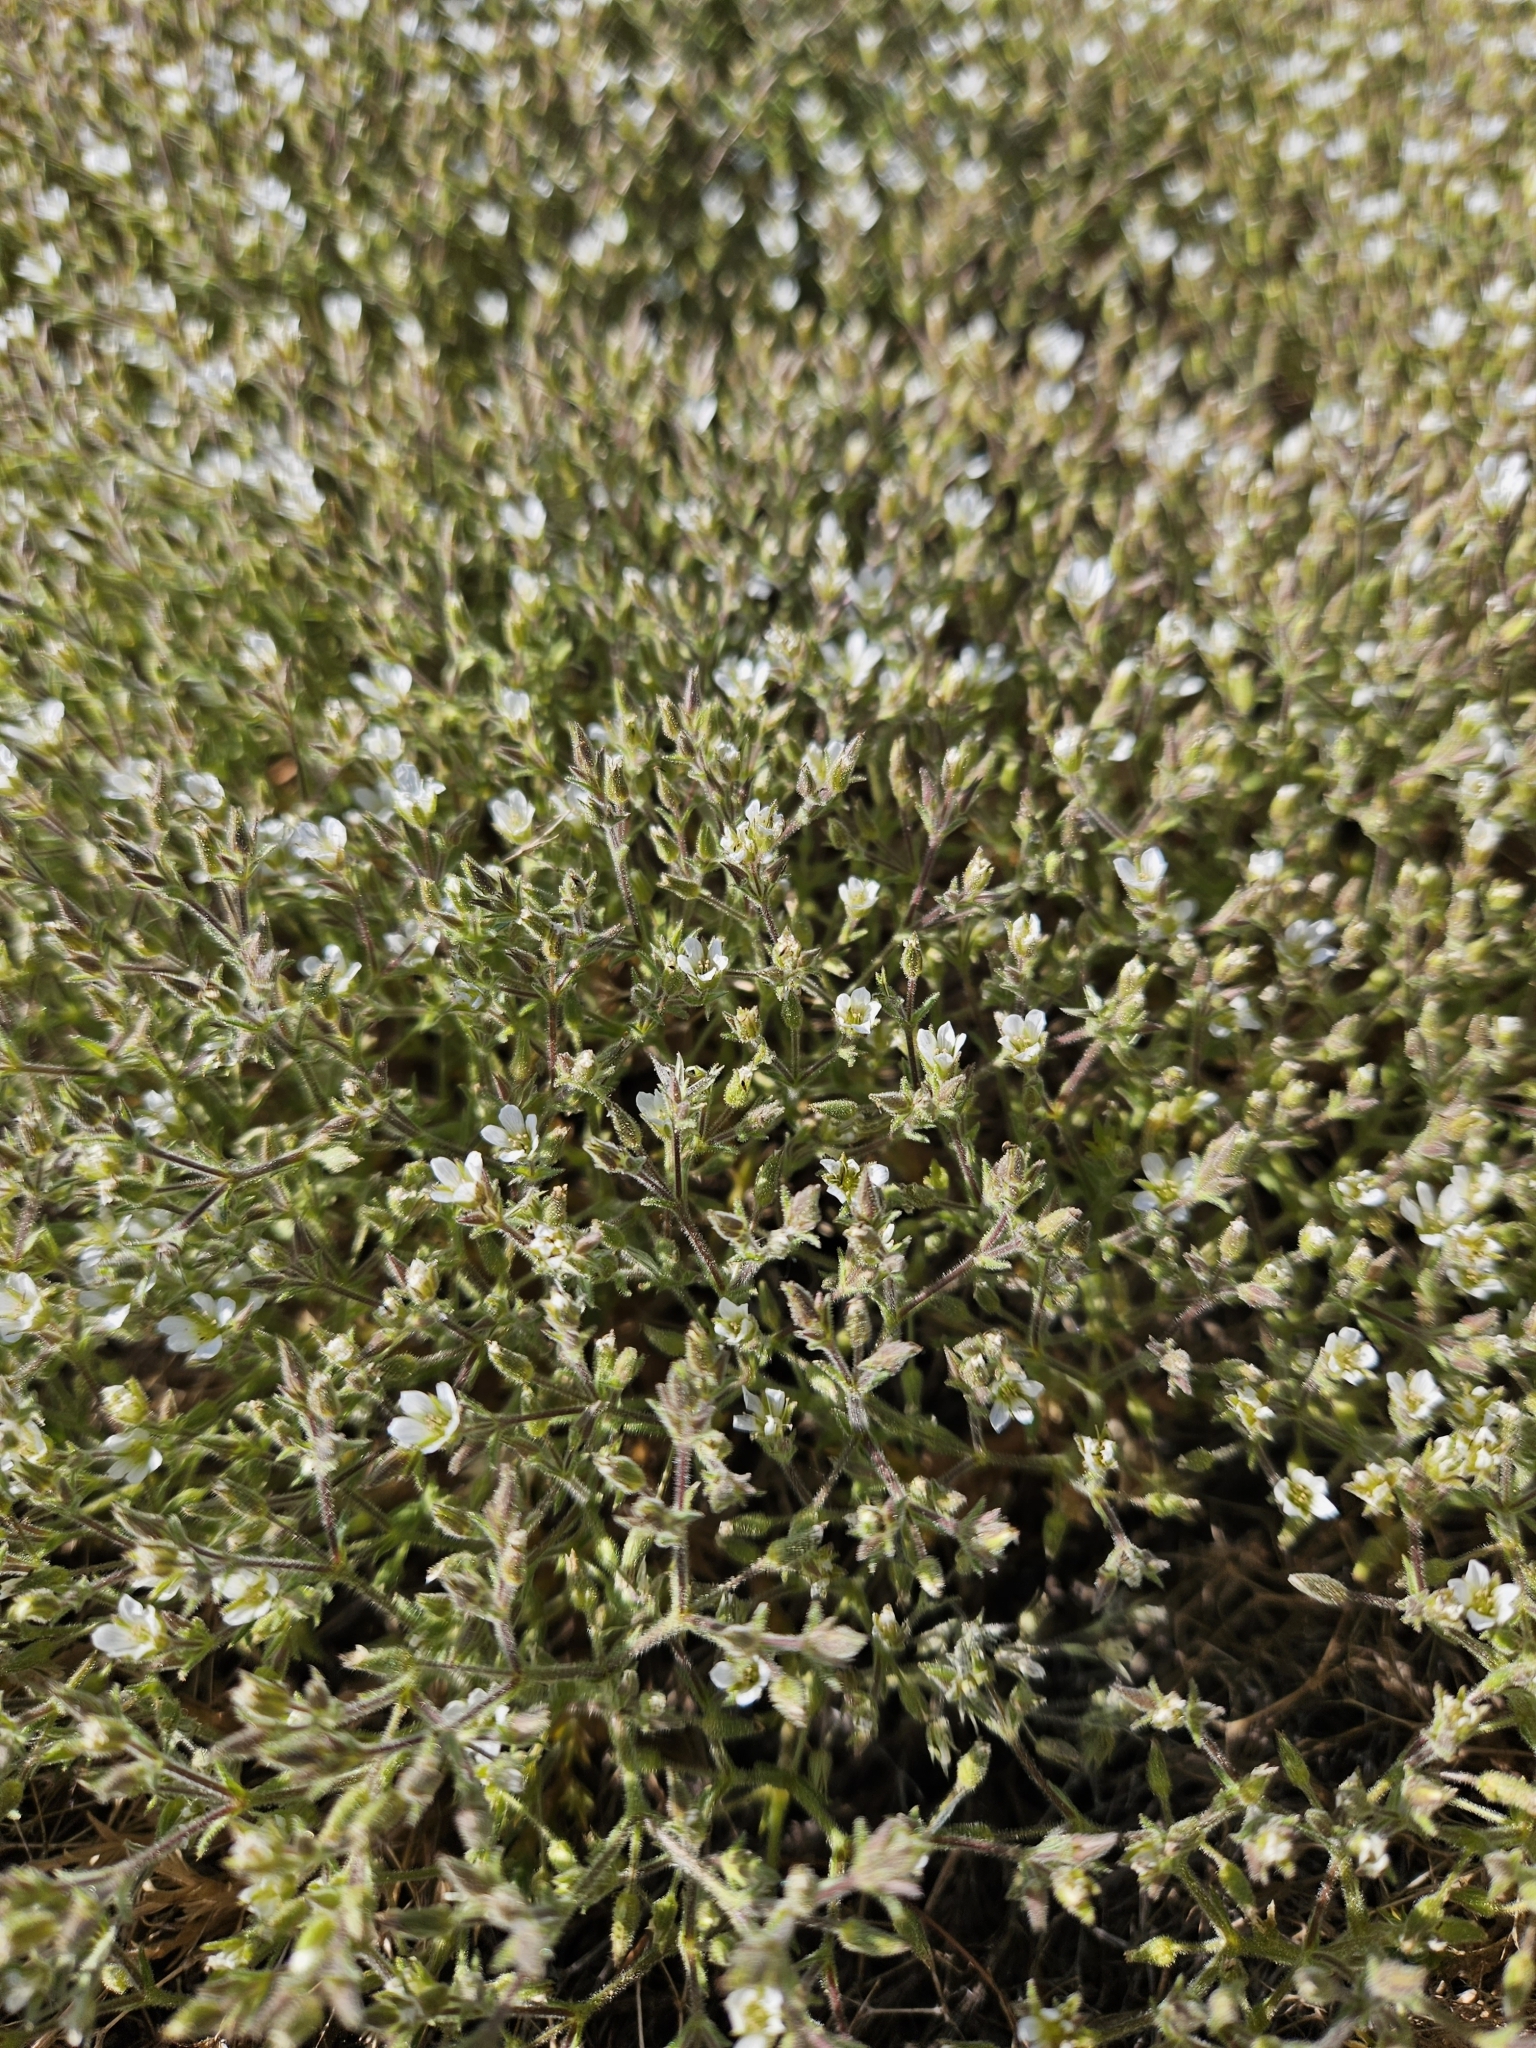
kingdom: Plantae
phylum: Tracheophyta
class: Magnoliopsida
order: Caryophyllales
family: Caryophyllaceae
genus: Sabulina
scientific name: Sabulina nuttallii
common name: Nuttall's stitchwort
